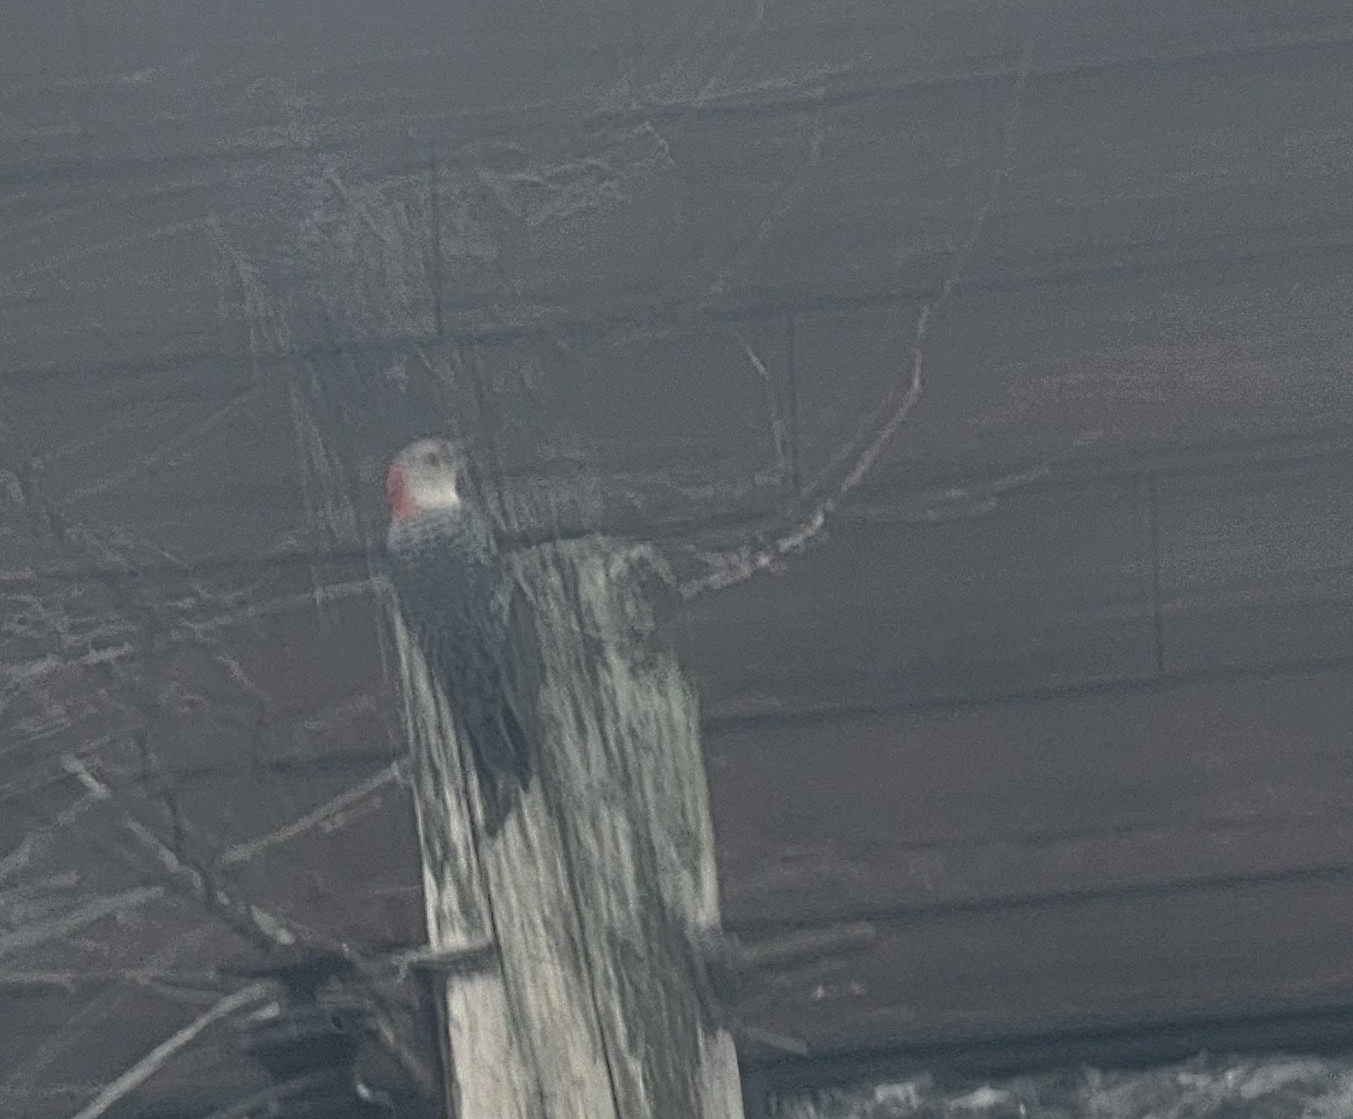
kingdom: Animalia
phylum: Chordata
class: Aves
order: Piciformes
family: Picidae
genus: Melanerpes
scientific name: Melanerpes carolinus
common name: Red-bellied woodpecker
